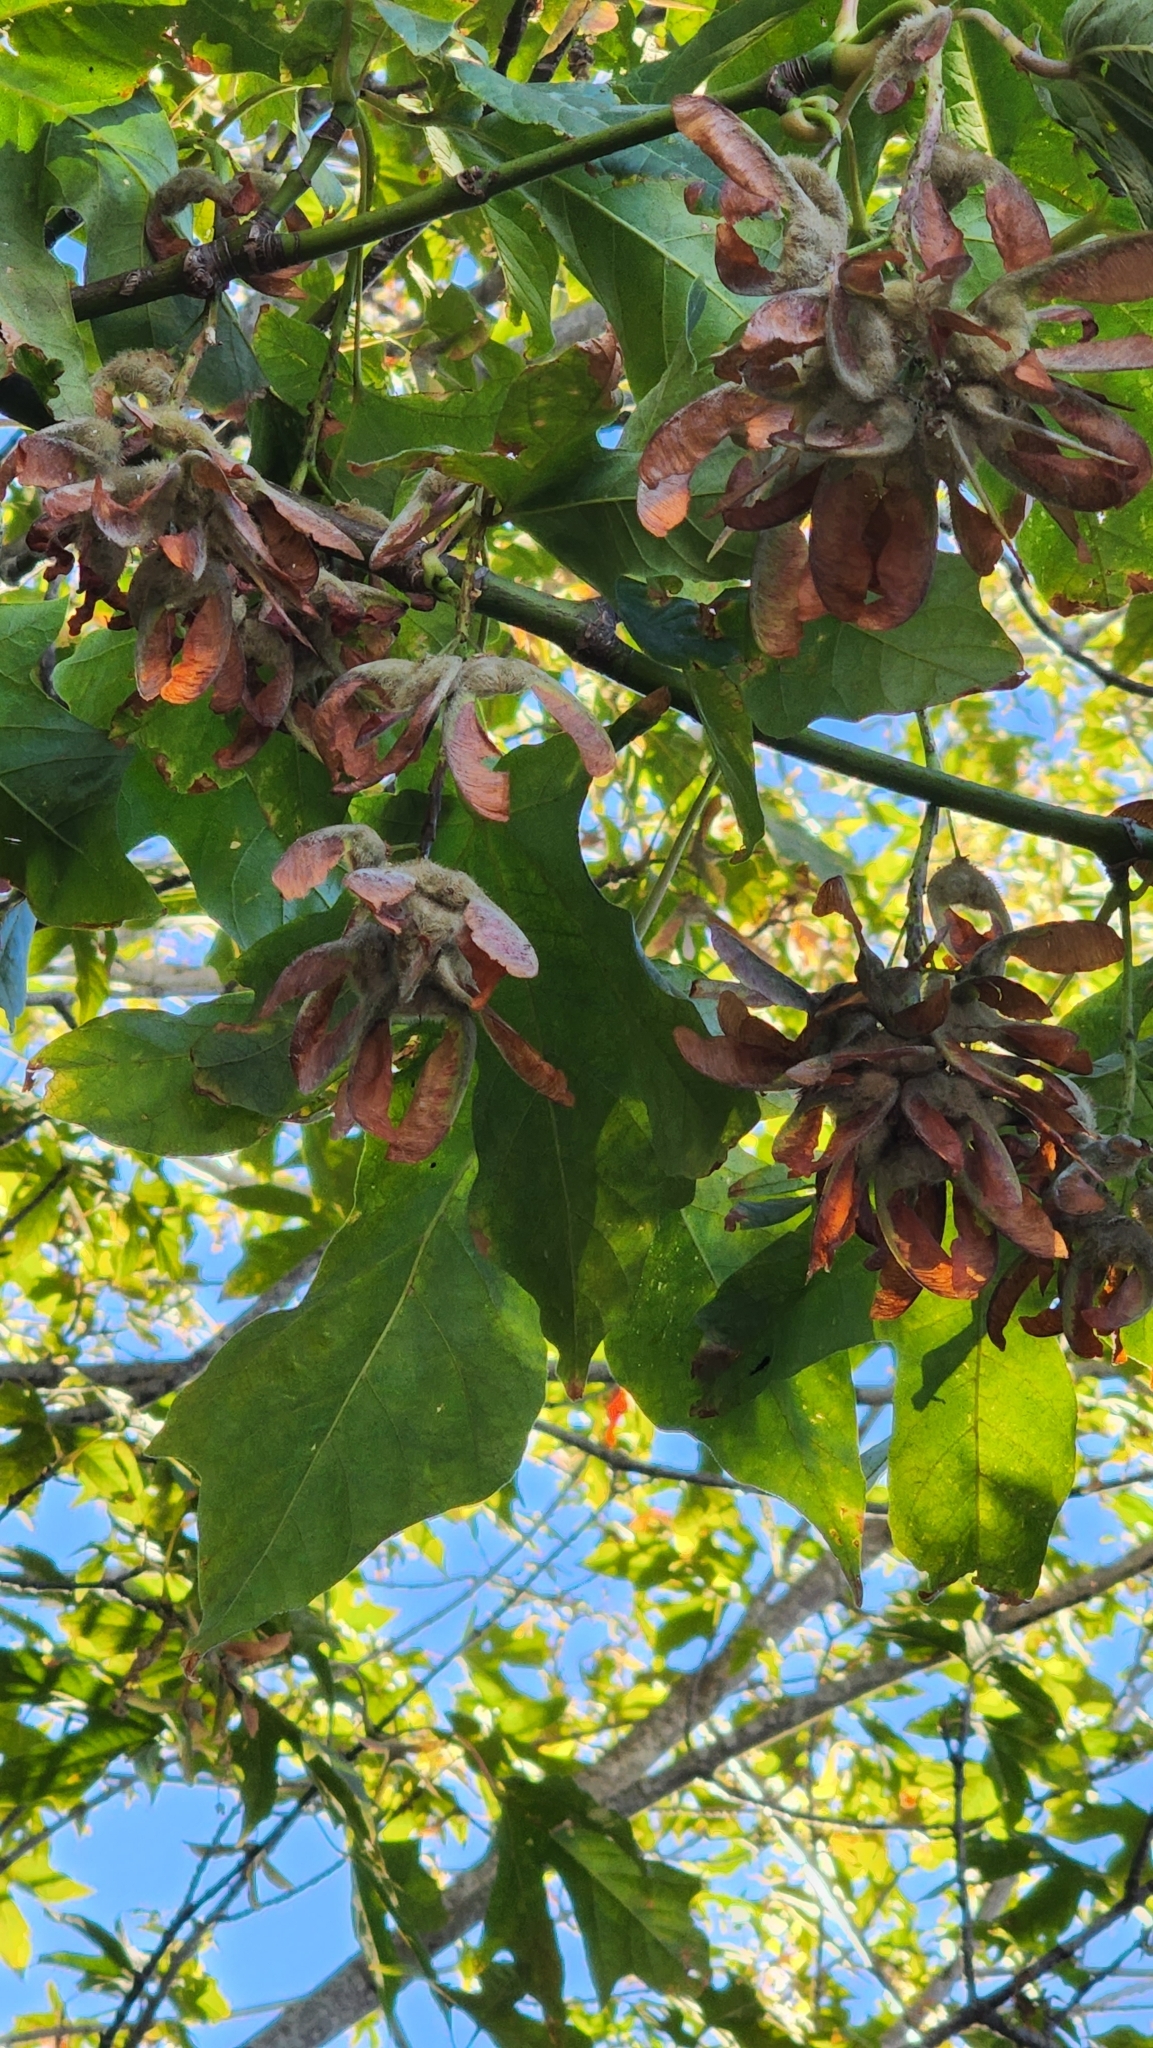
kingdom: Plantae
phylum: Tracheophyta
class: Magnoliopsida
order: Sapindales
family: Sapindaceae
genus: Acer
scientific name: Acer macrophyllum
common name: Oregon maple
